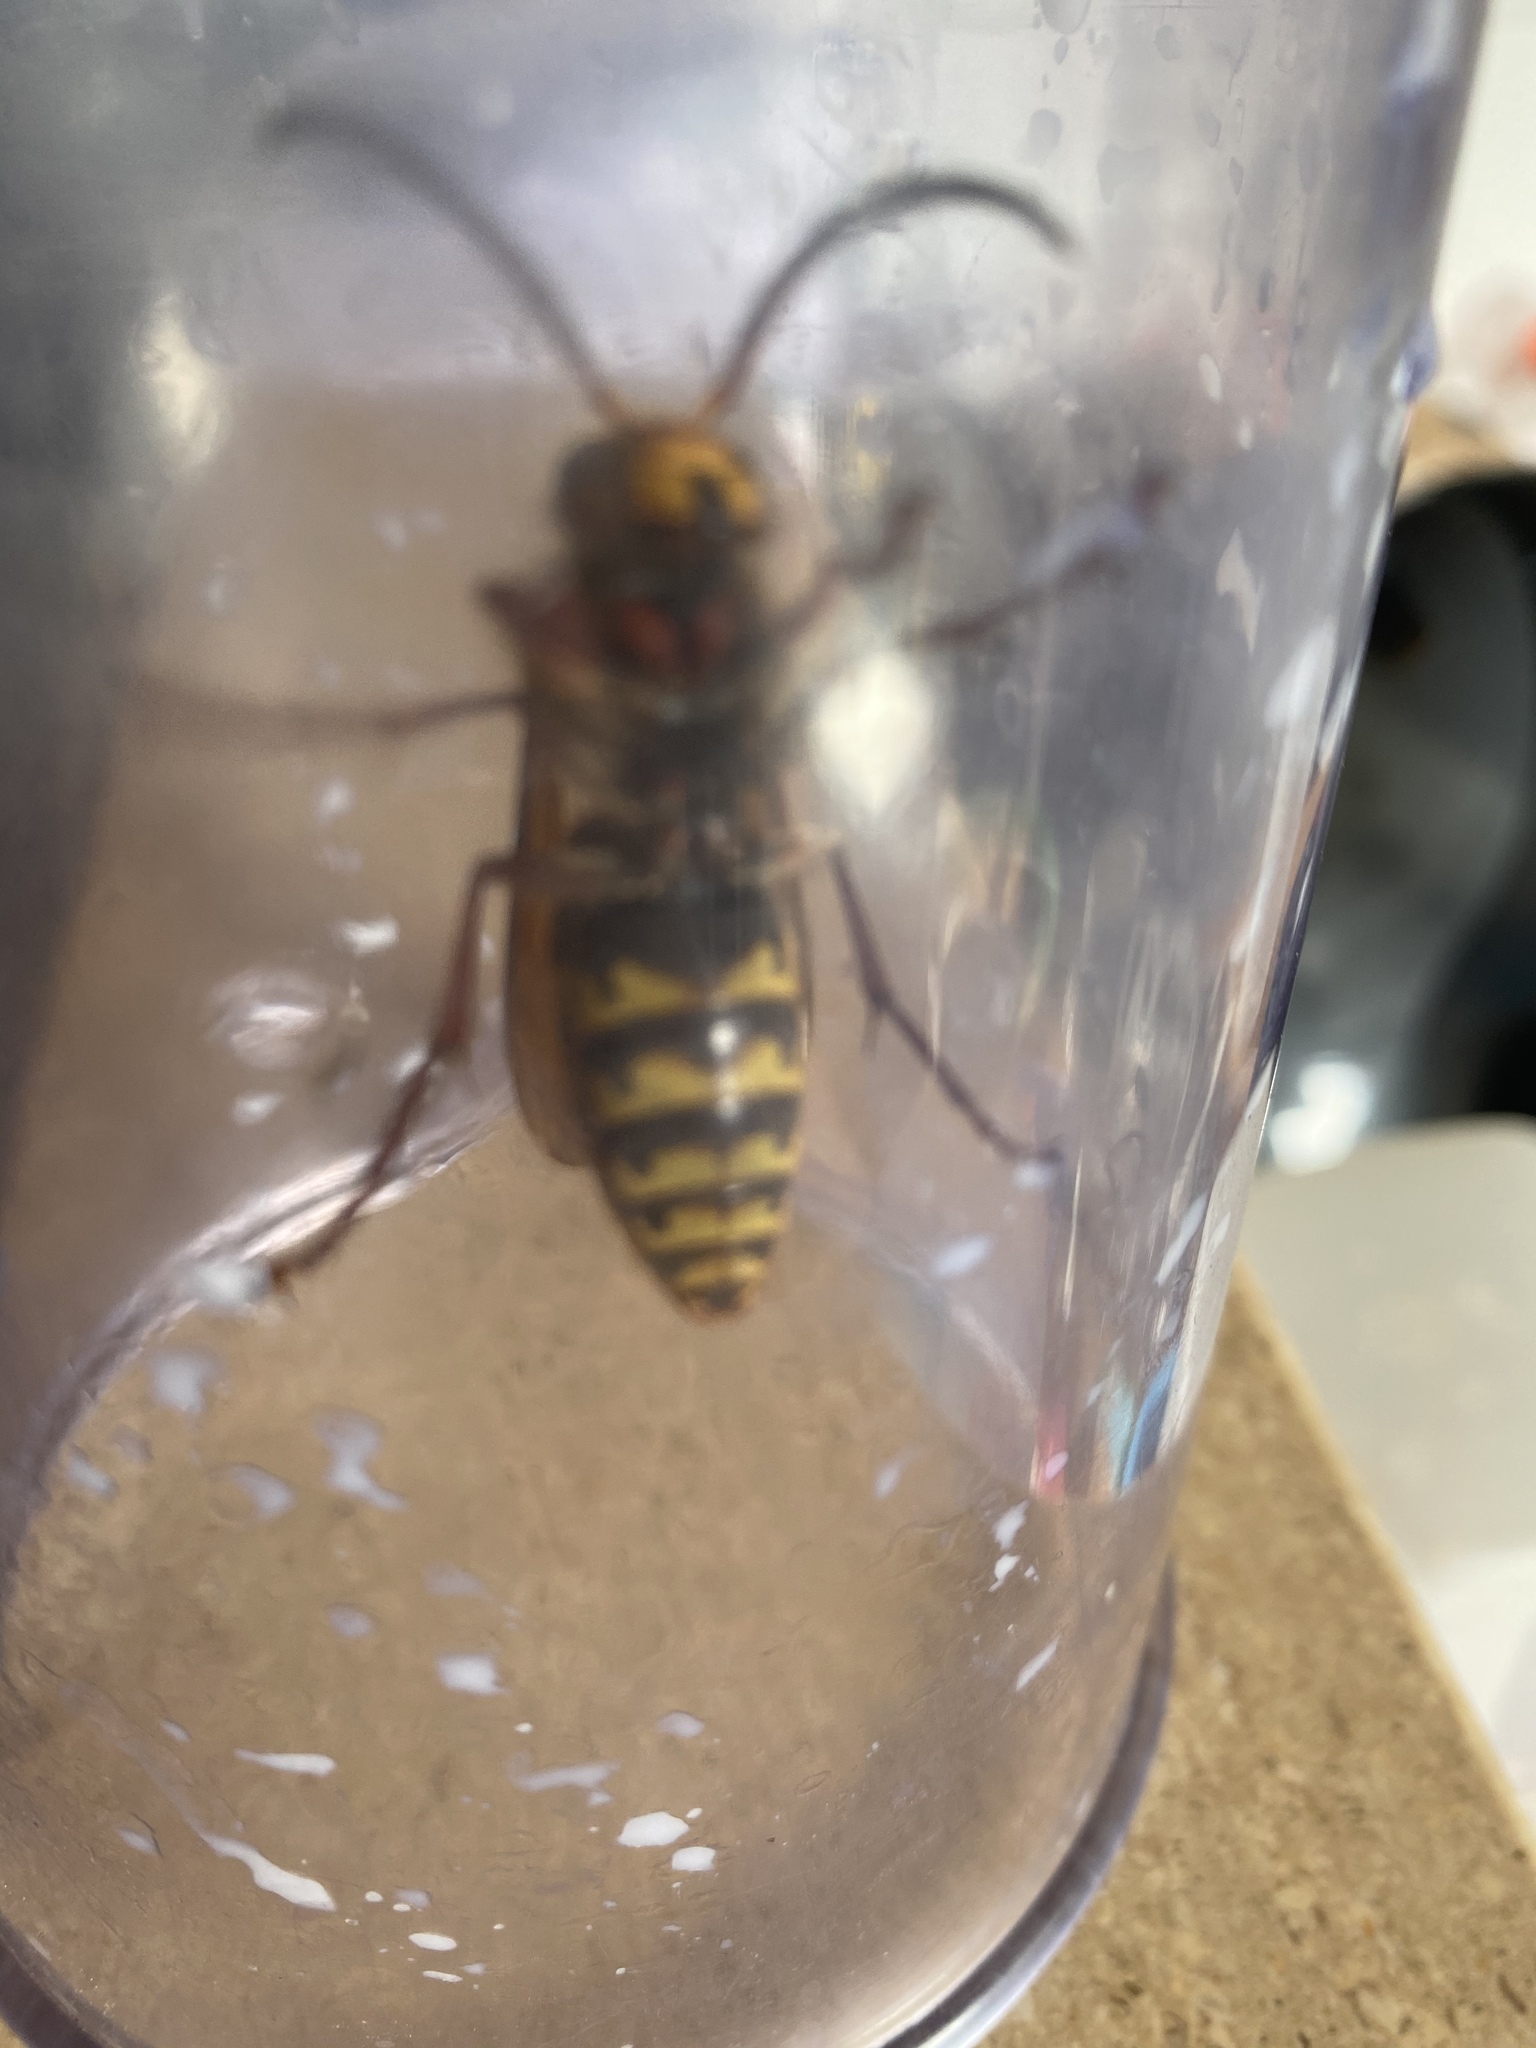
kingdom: Animalia
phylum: Arthropoda
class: Insecta
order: Hymenoptera
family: Vespidae
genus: Vespa
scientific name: Vespa crabro
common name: Hornet
